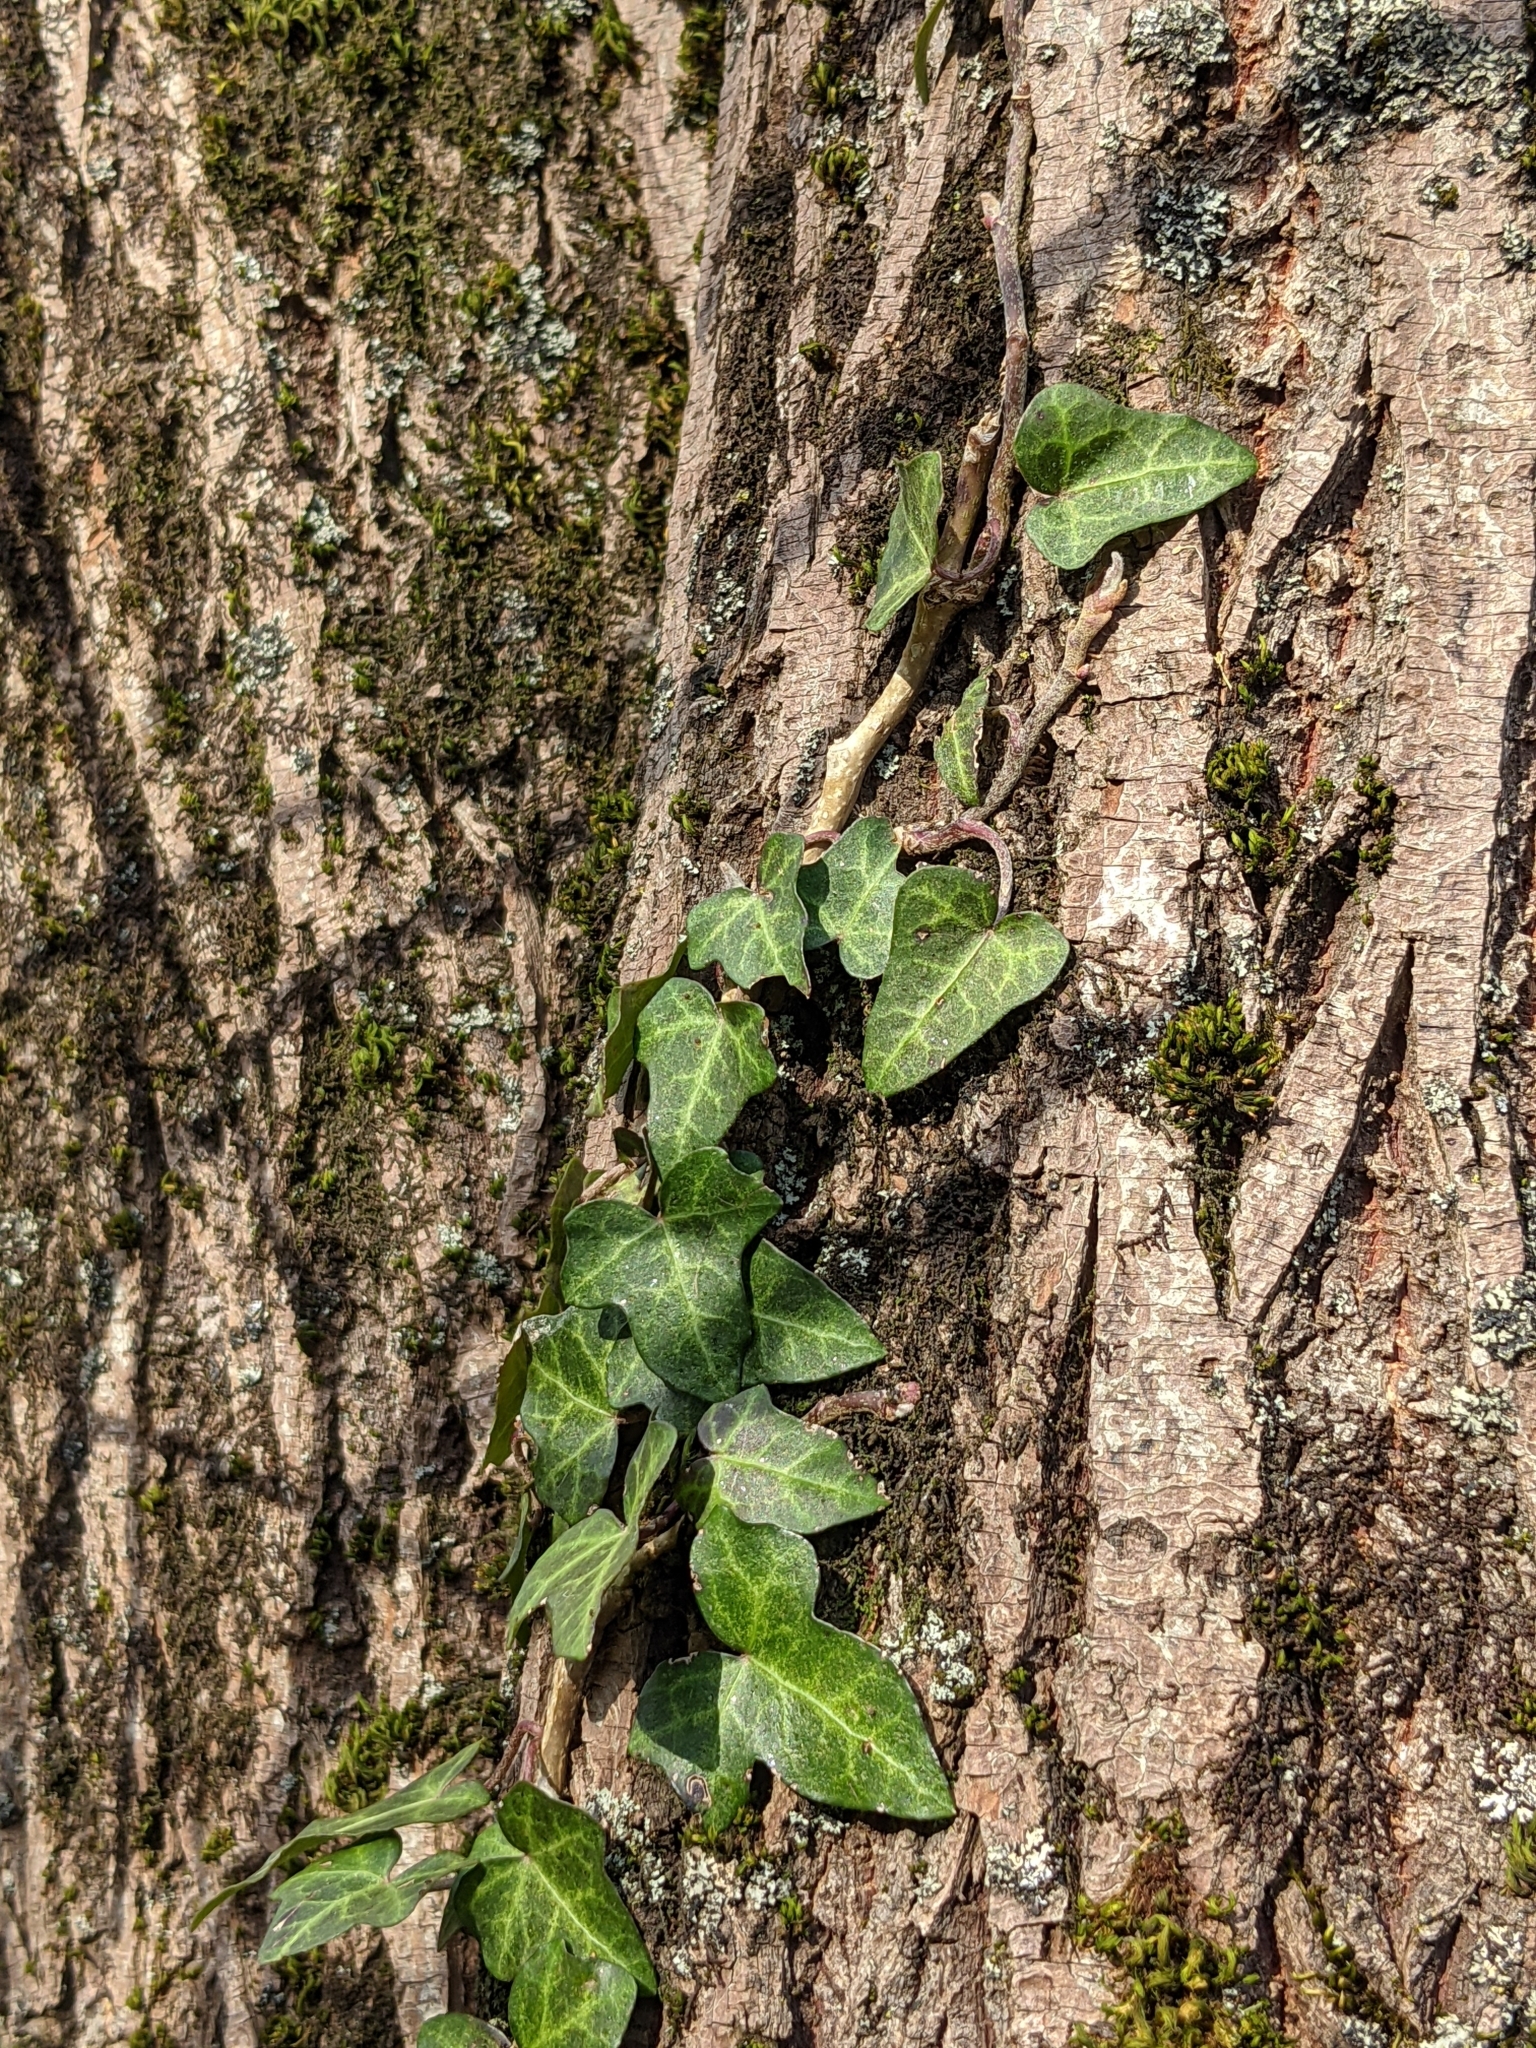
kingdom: Plantae
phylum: Tracheophyta
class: Magnoliopsida
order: Apiales
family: Araliaceae
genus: Hedera
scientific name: Hedera helix
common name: Ivy
